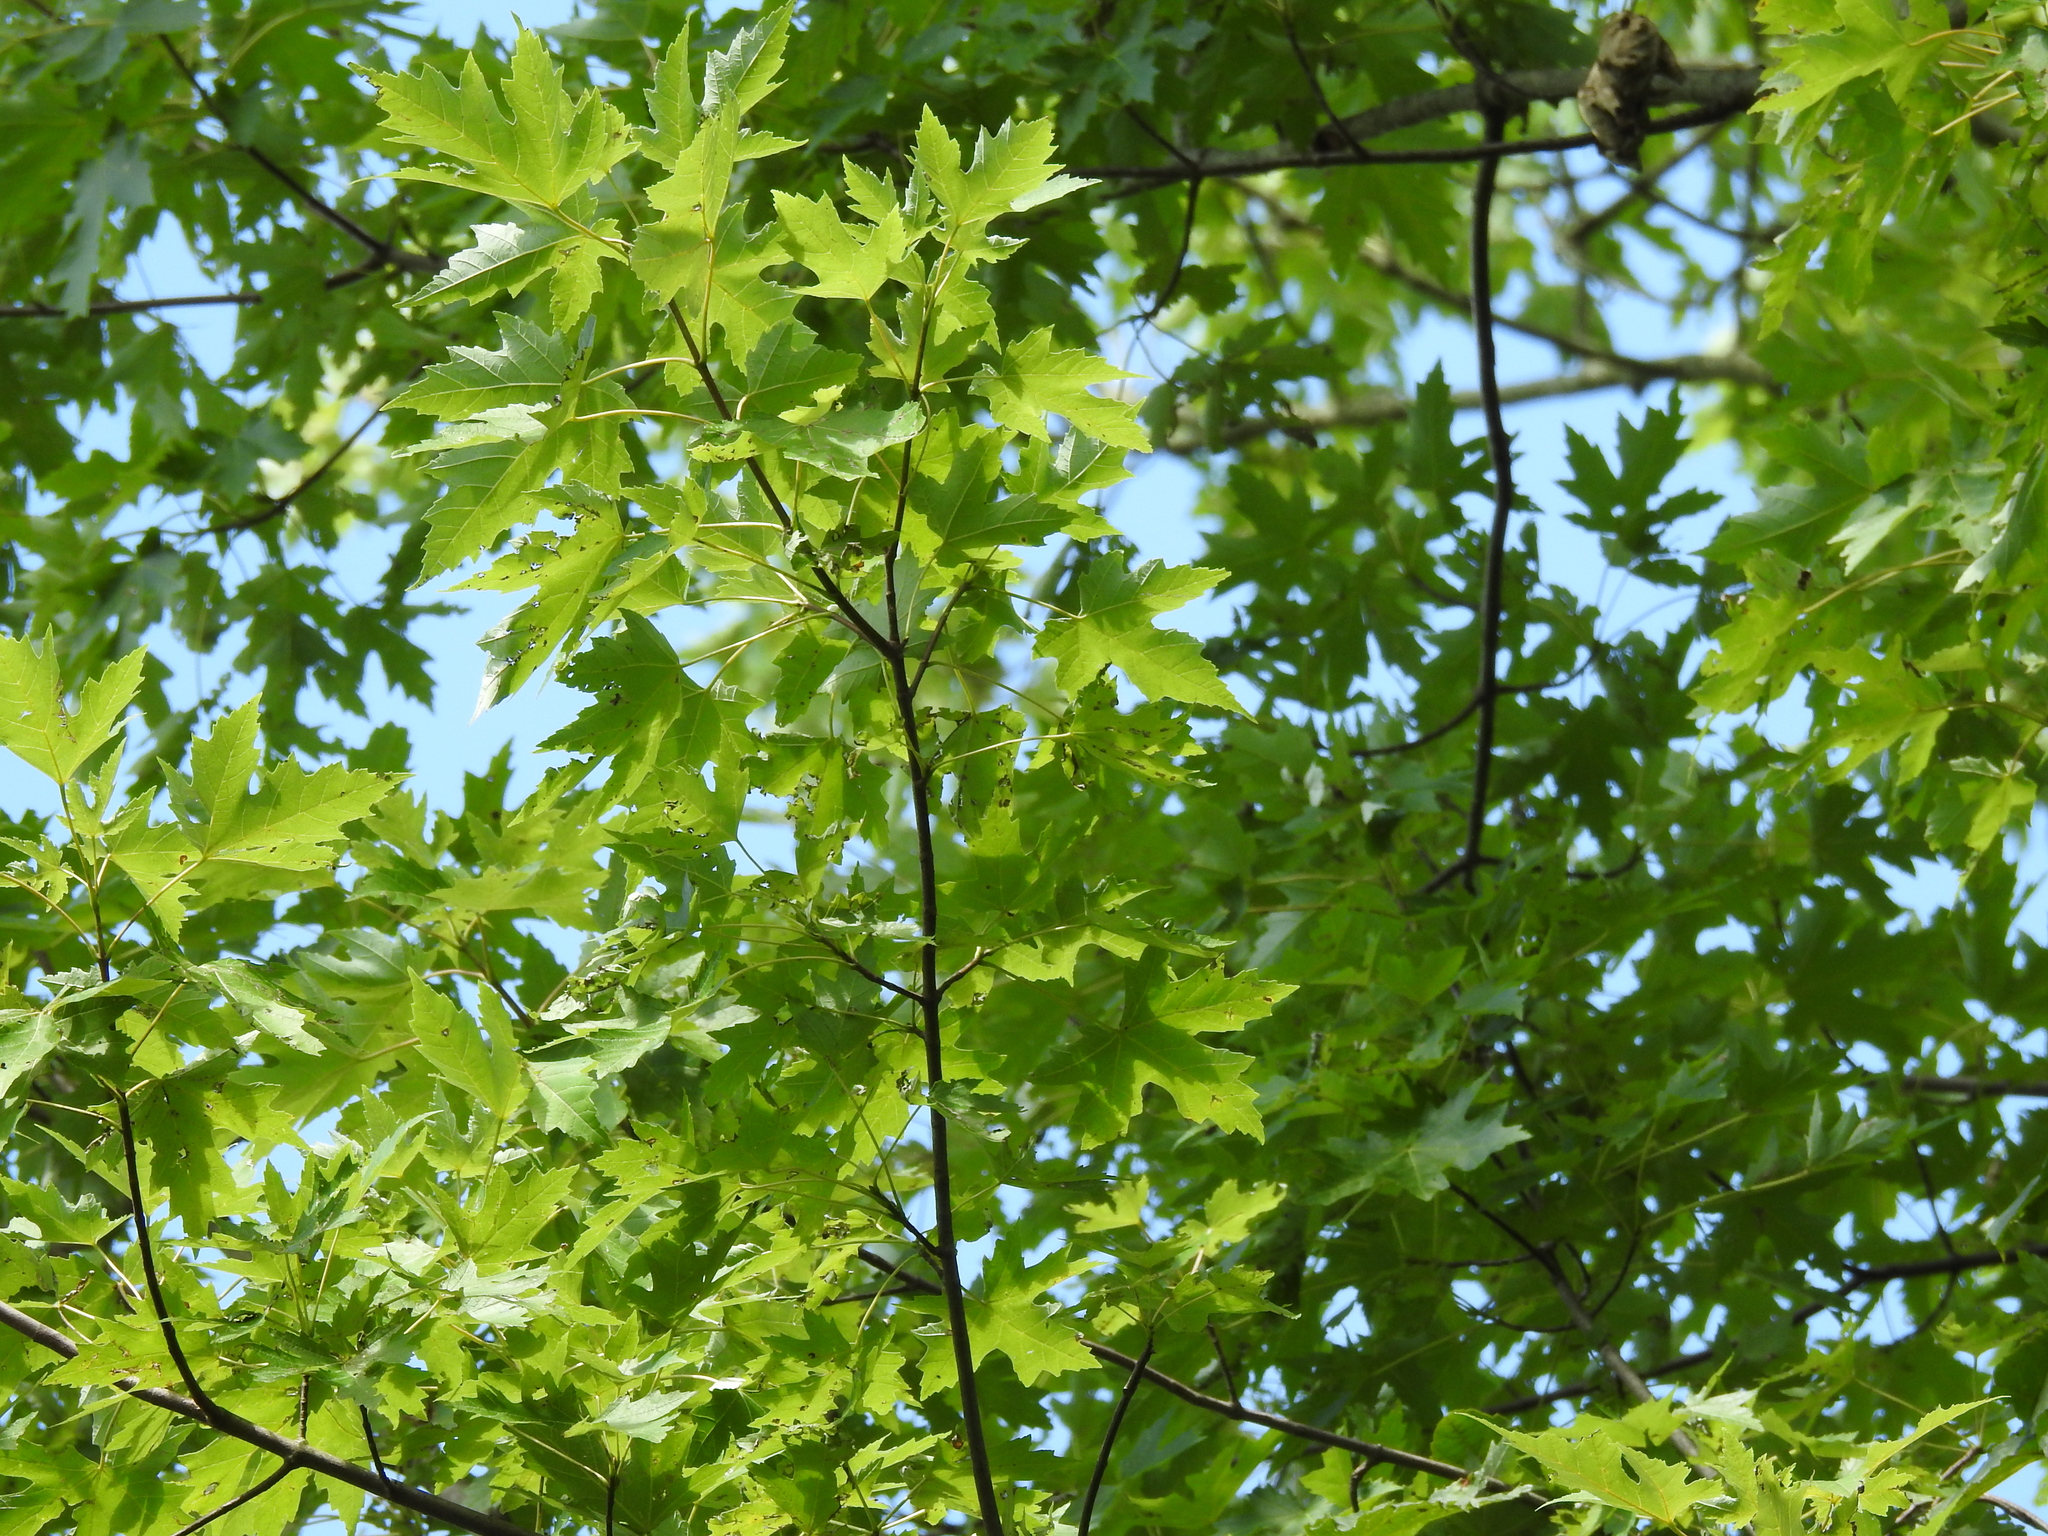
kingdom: Plantae
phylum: Tracheophyta
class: Magnoliopsida
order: Sapindales
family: Sapindaceae
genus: Acer
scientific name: Acer saccharinum
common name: Silver maple
